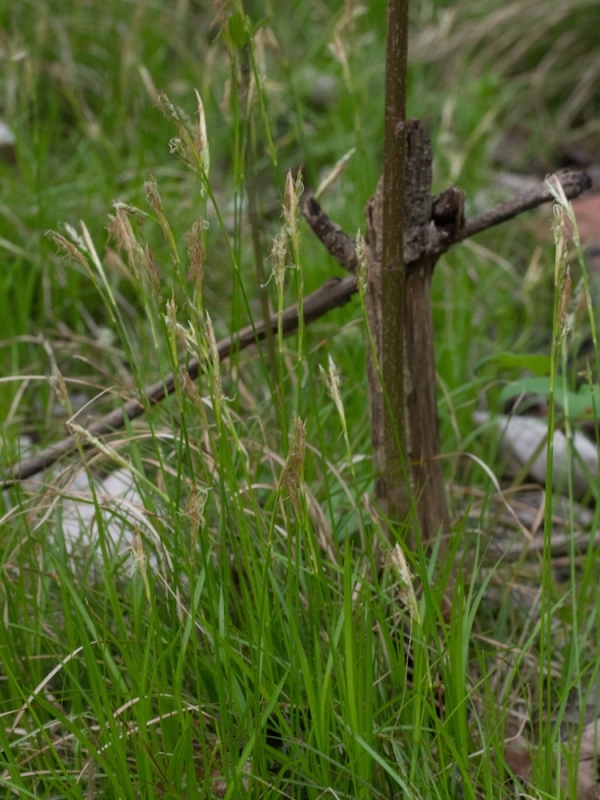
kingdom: Plantae
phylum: Tracheophyta
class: Liliopsida
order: Poales
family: Cyperaceae
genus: Carex
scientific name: Carex alba
